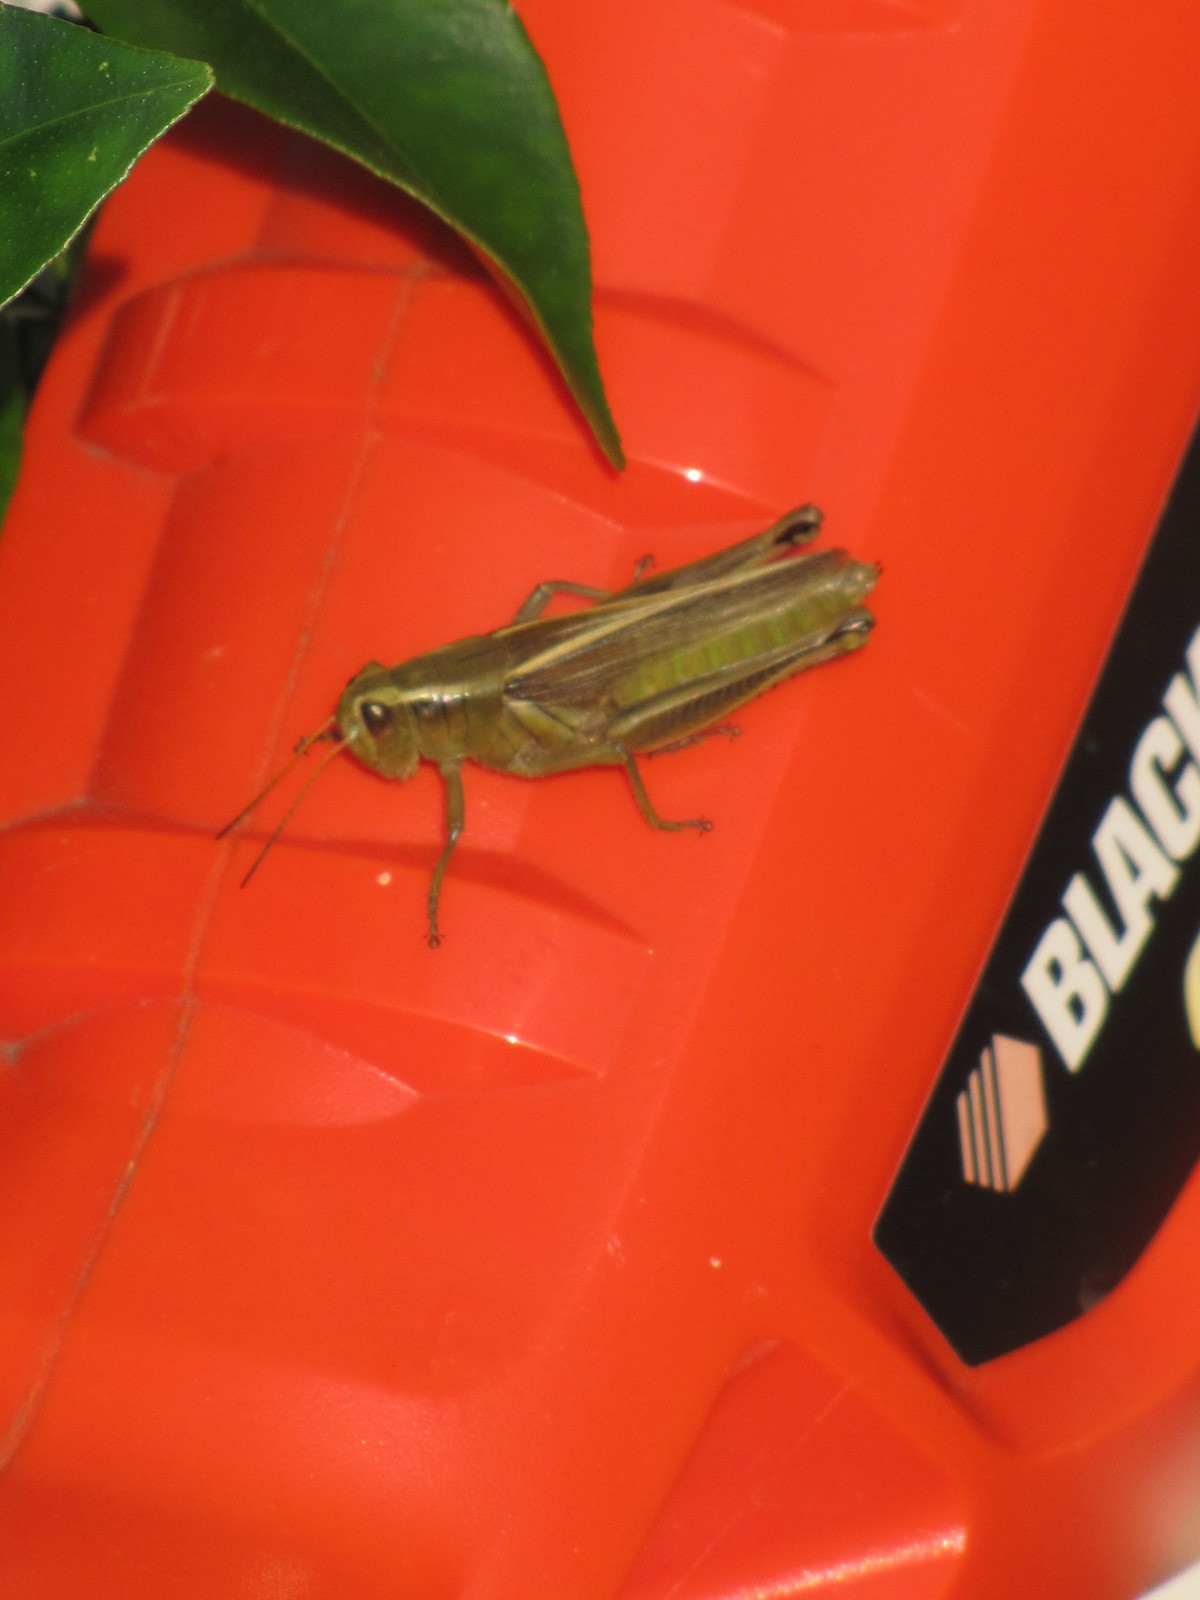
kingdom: Animalia
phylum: Arthropoda
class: Insecta
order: Orthoptera
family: Acrididae
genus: Melanoplus
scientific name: Melanoplus bivittatus
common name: Two-striped grasshopper
